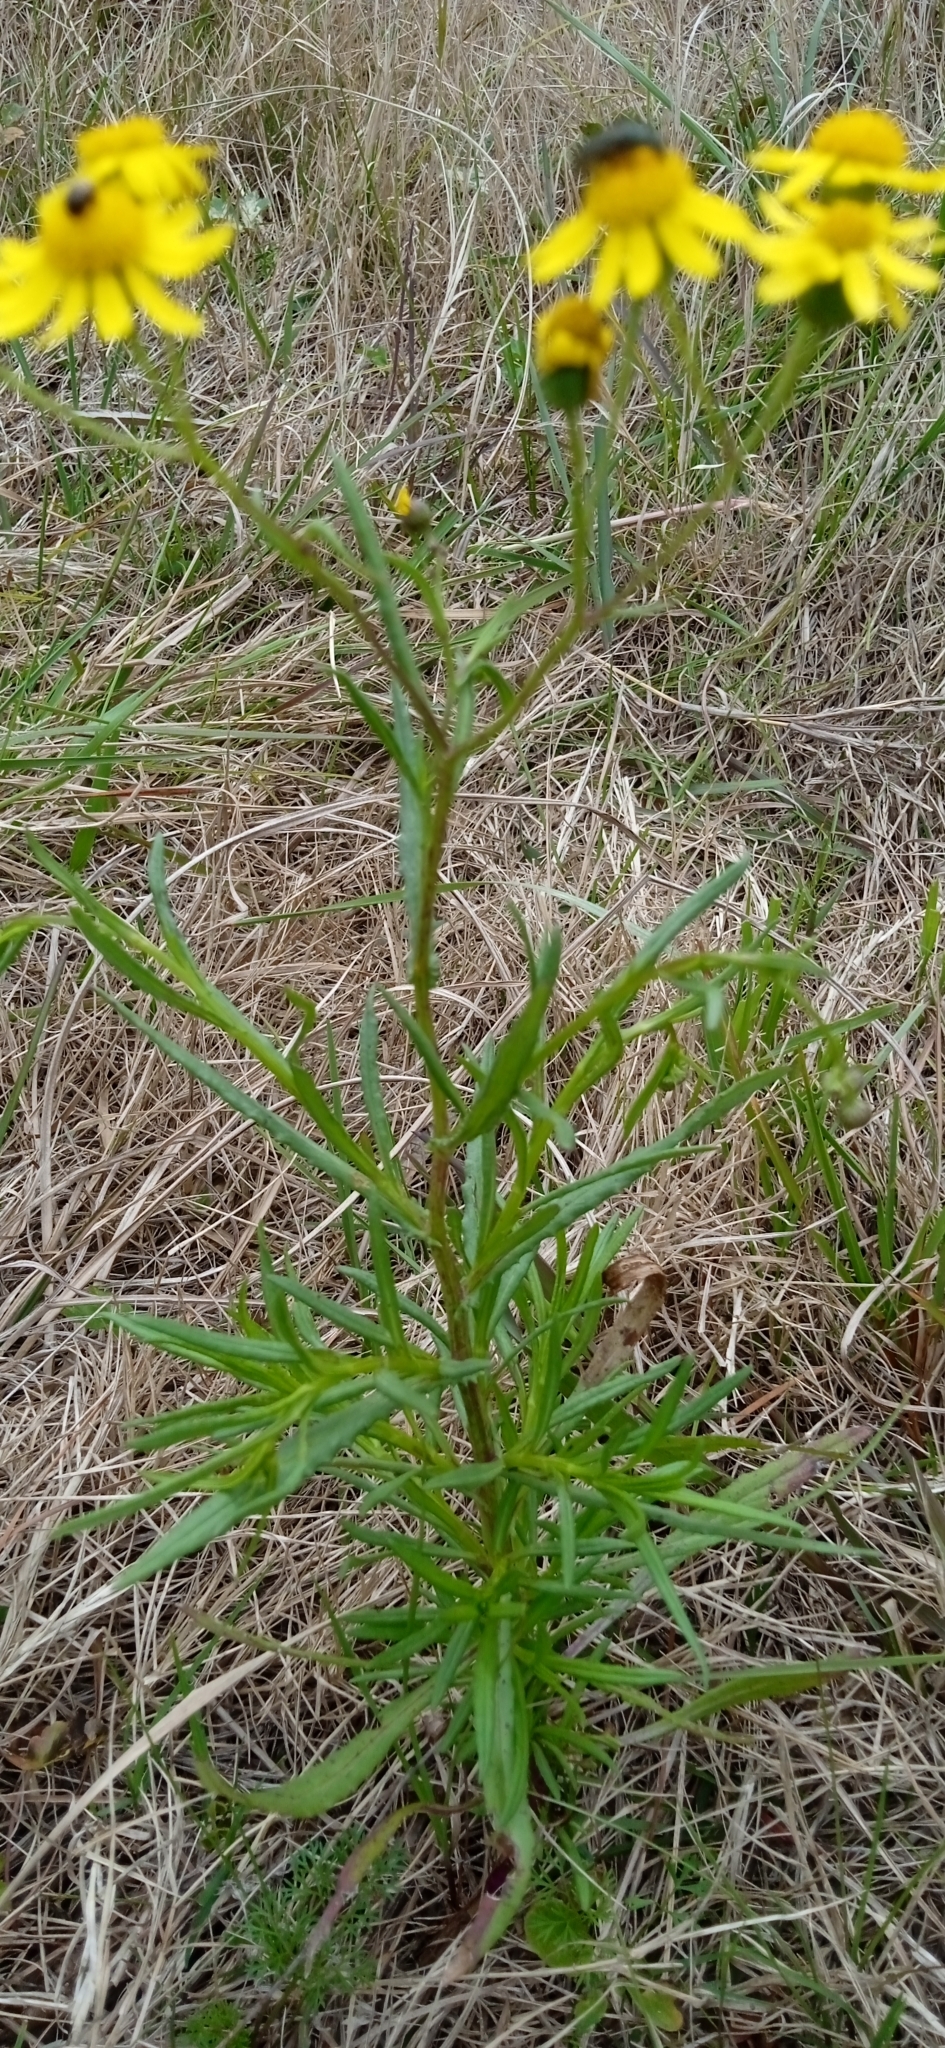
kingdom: Plantae
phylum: Tracheophyta
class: Magnoliopsida
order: Asterales
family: Asteraceae
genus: Senecio
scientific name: Senecio madagascariensis
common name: Madagascar ragwort
